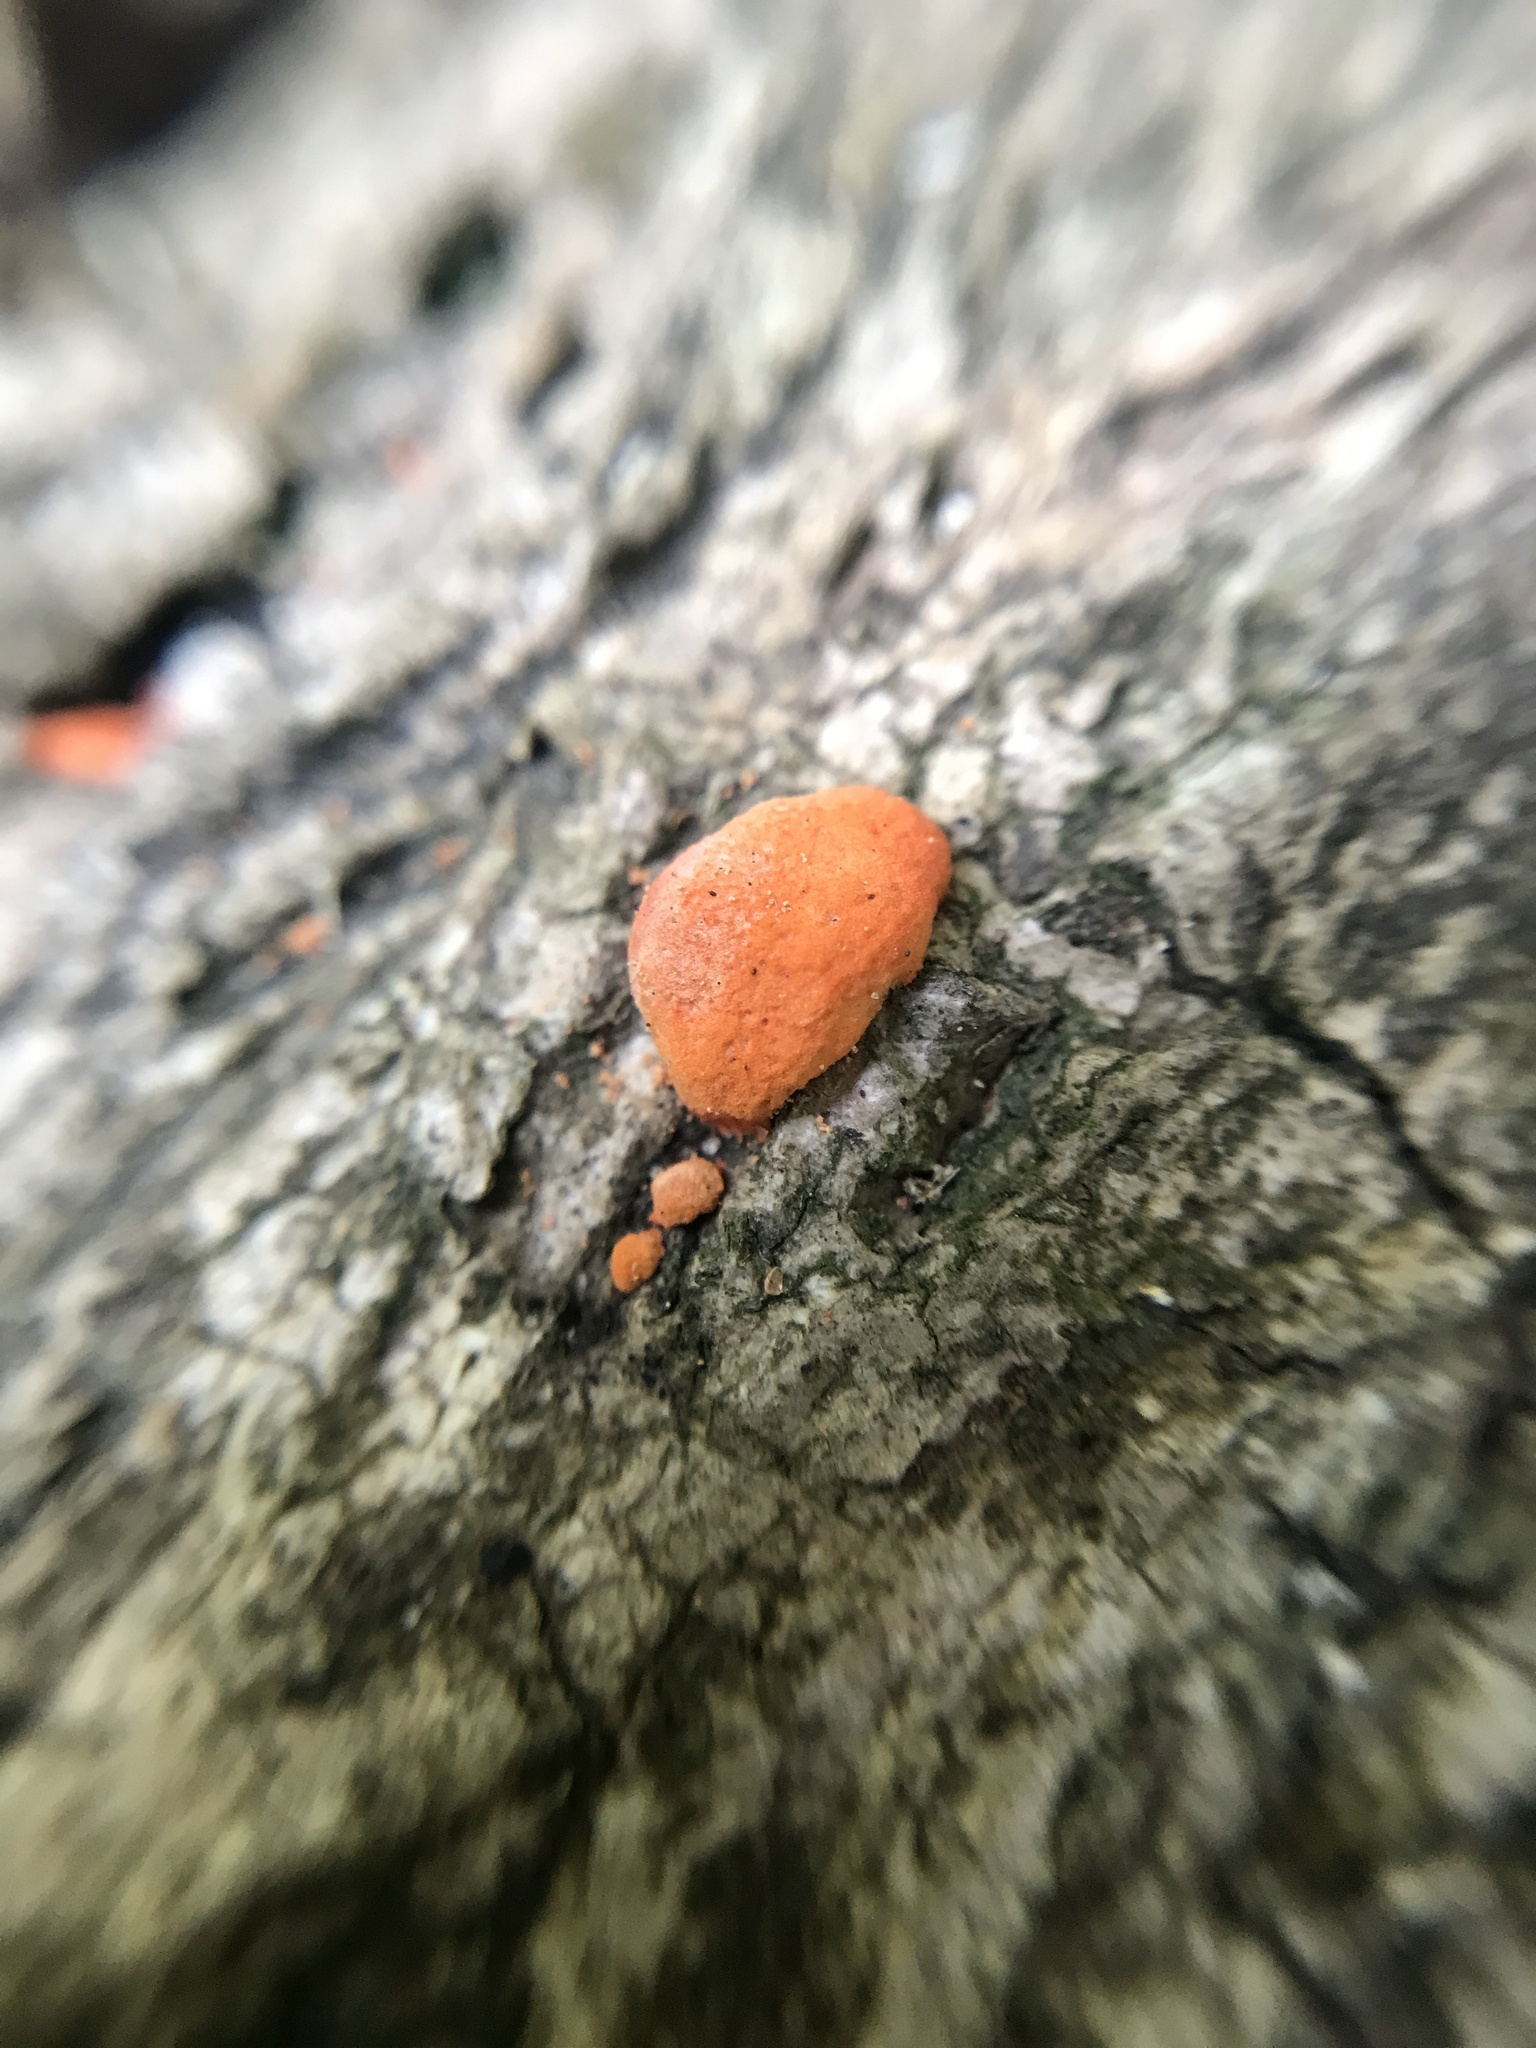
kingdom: Fungi
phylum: Basidiomycota
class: Agaricomycetes
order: Polyporales
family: Polyporaceae
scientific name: Polyporaceae
